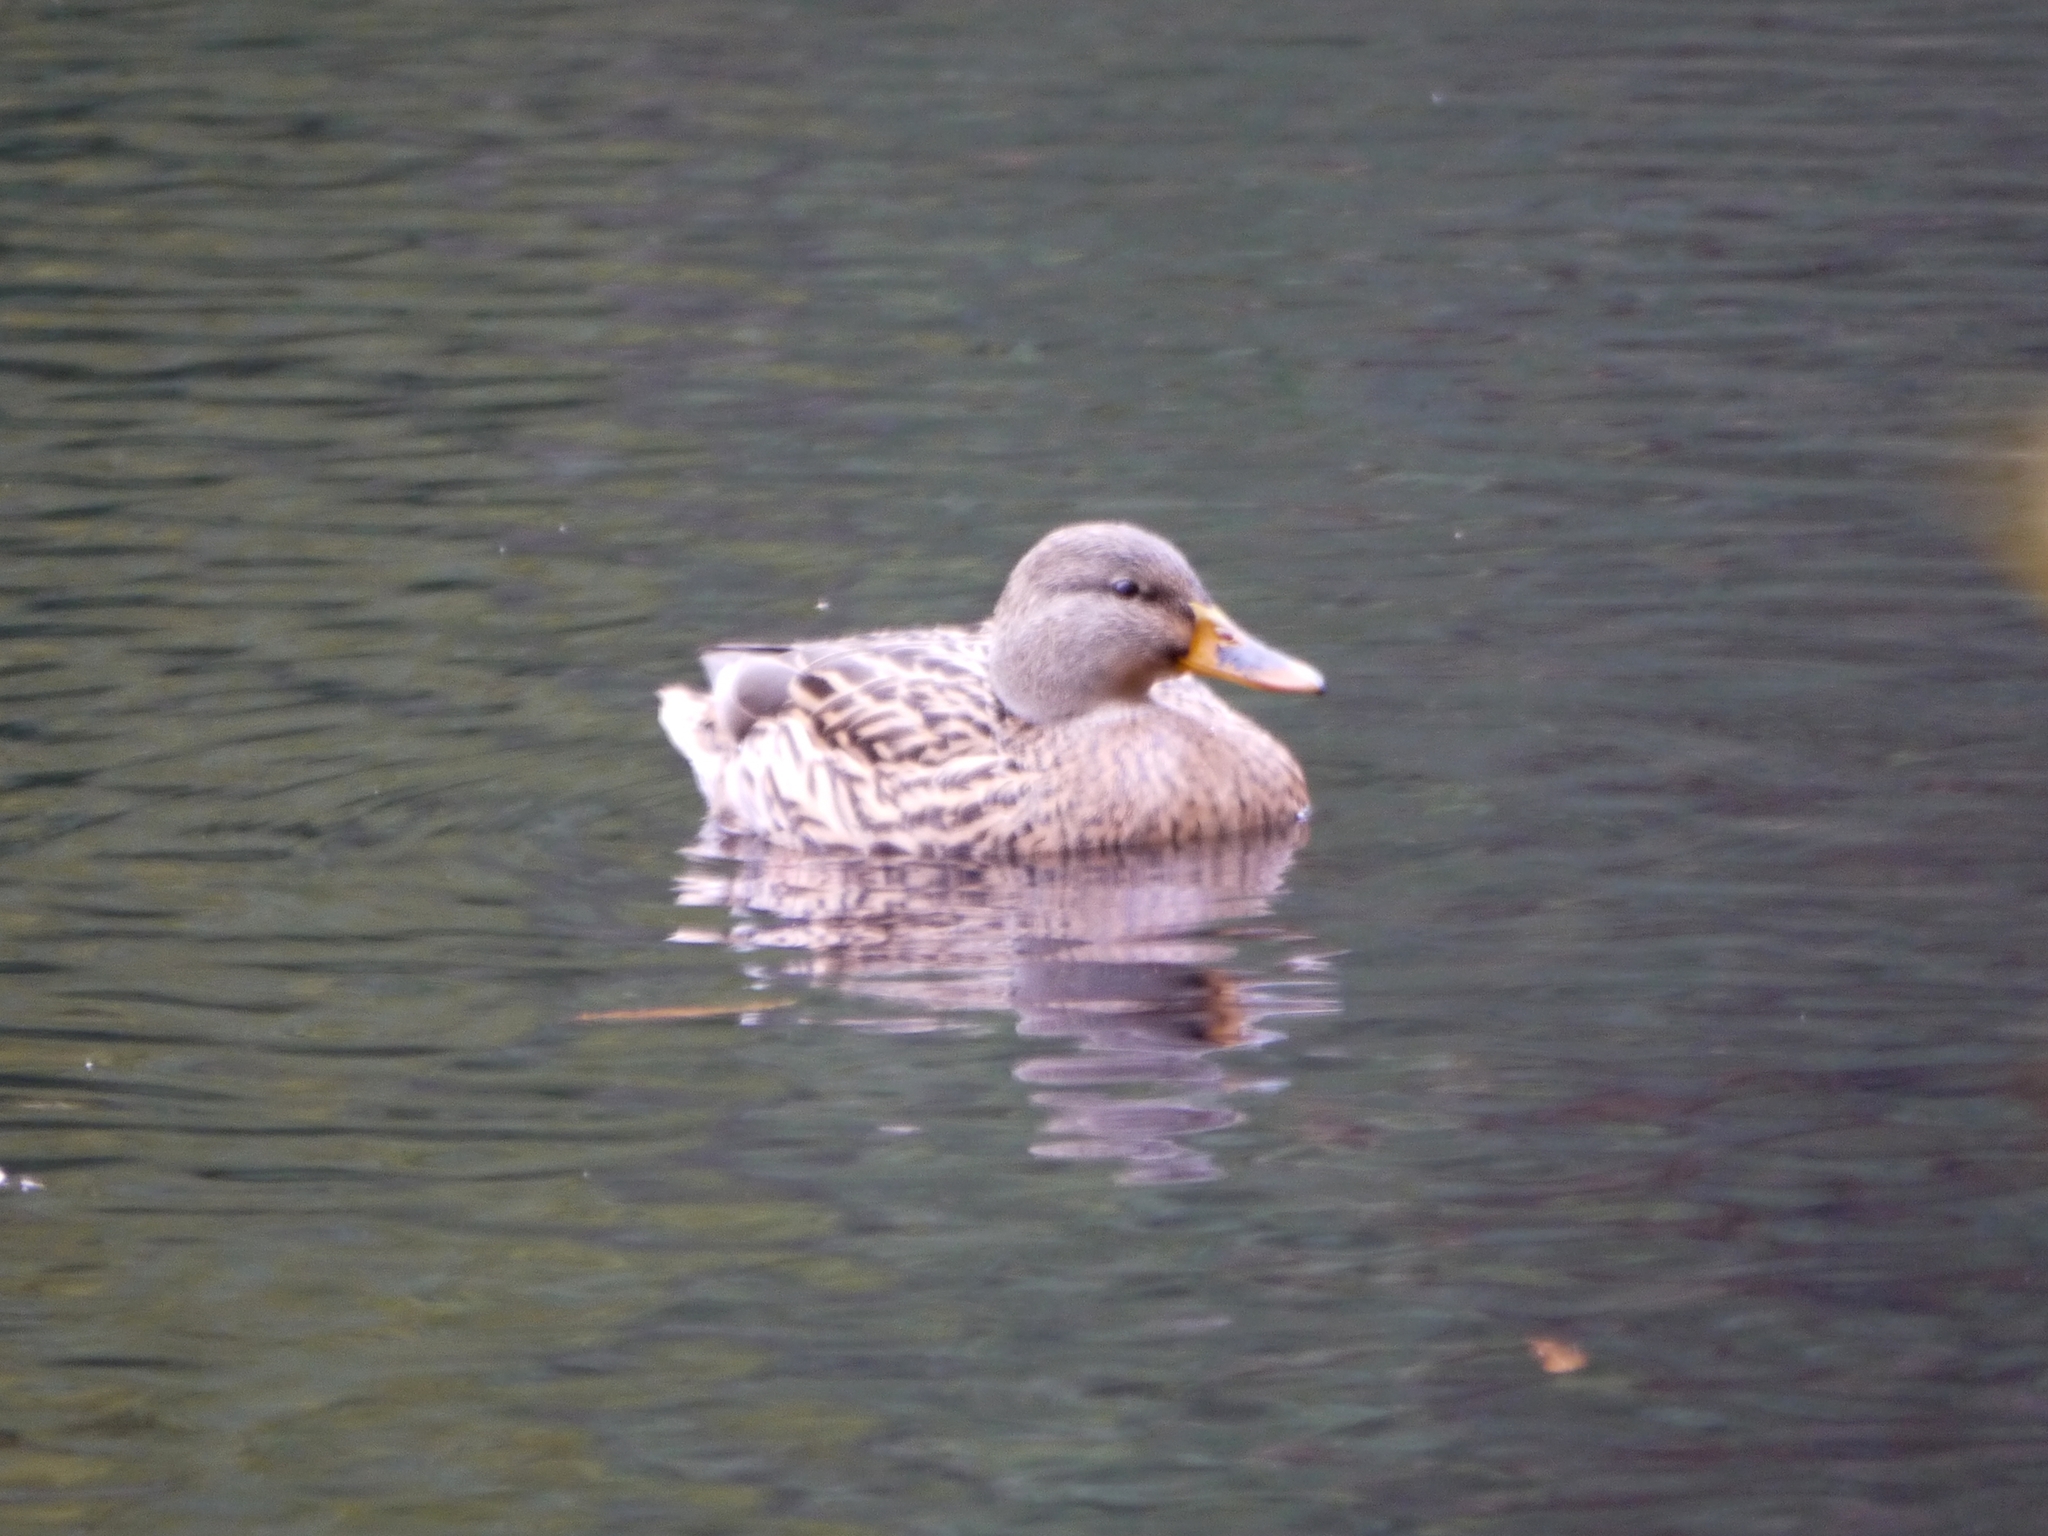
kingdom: Animalia
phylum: Chordata
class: Aves
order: Anseriformes
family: Anatidae
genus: Anas
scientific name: Anas platyrhynchos
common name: Mallard
